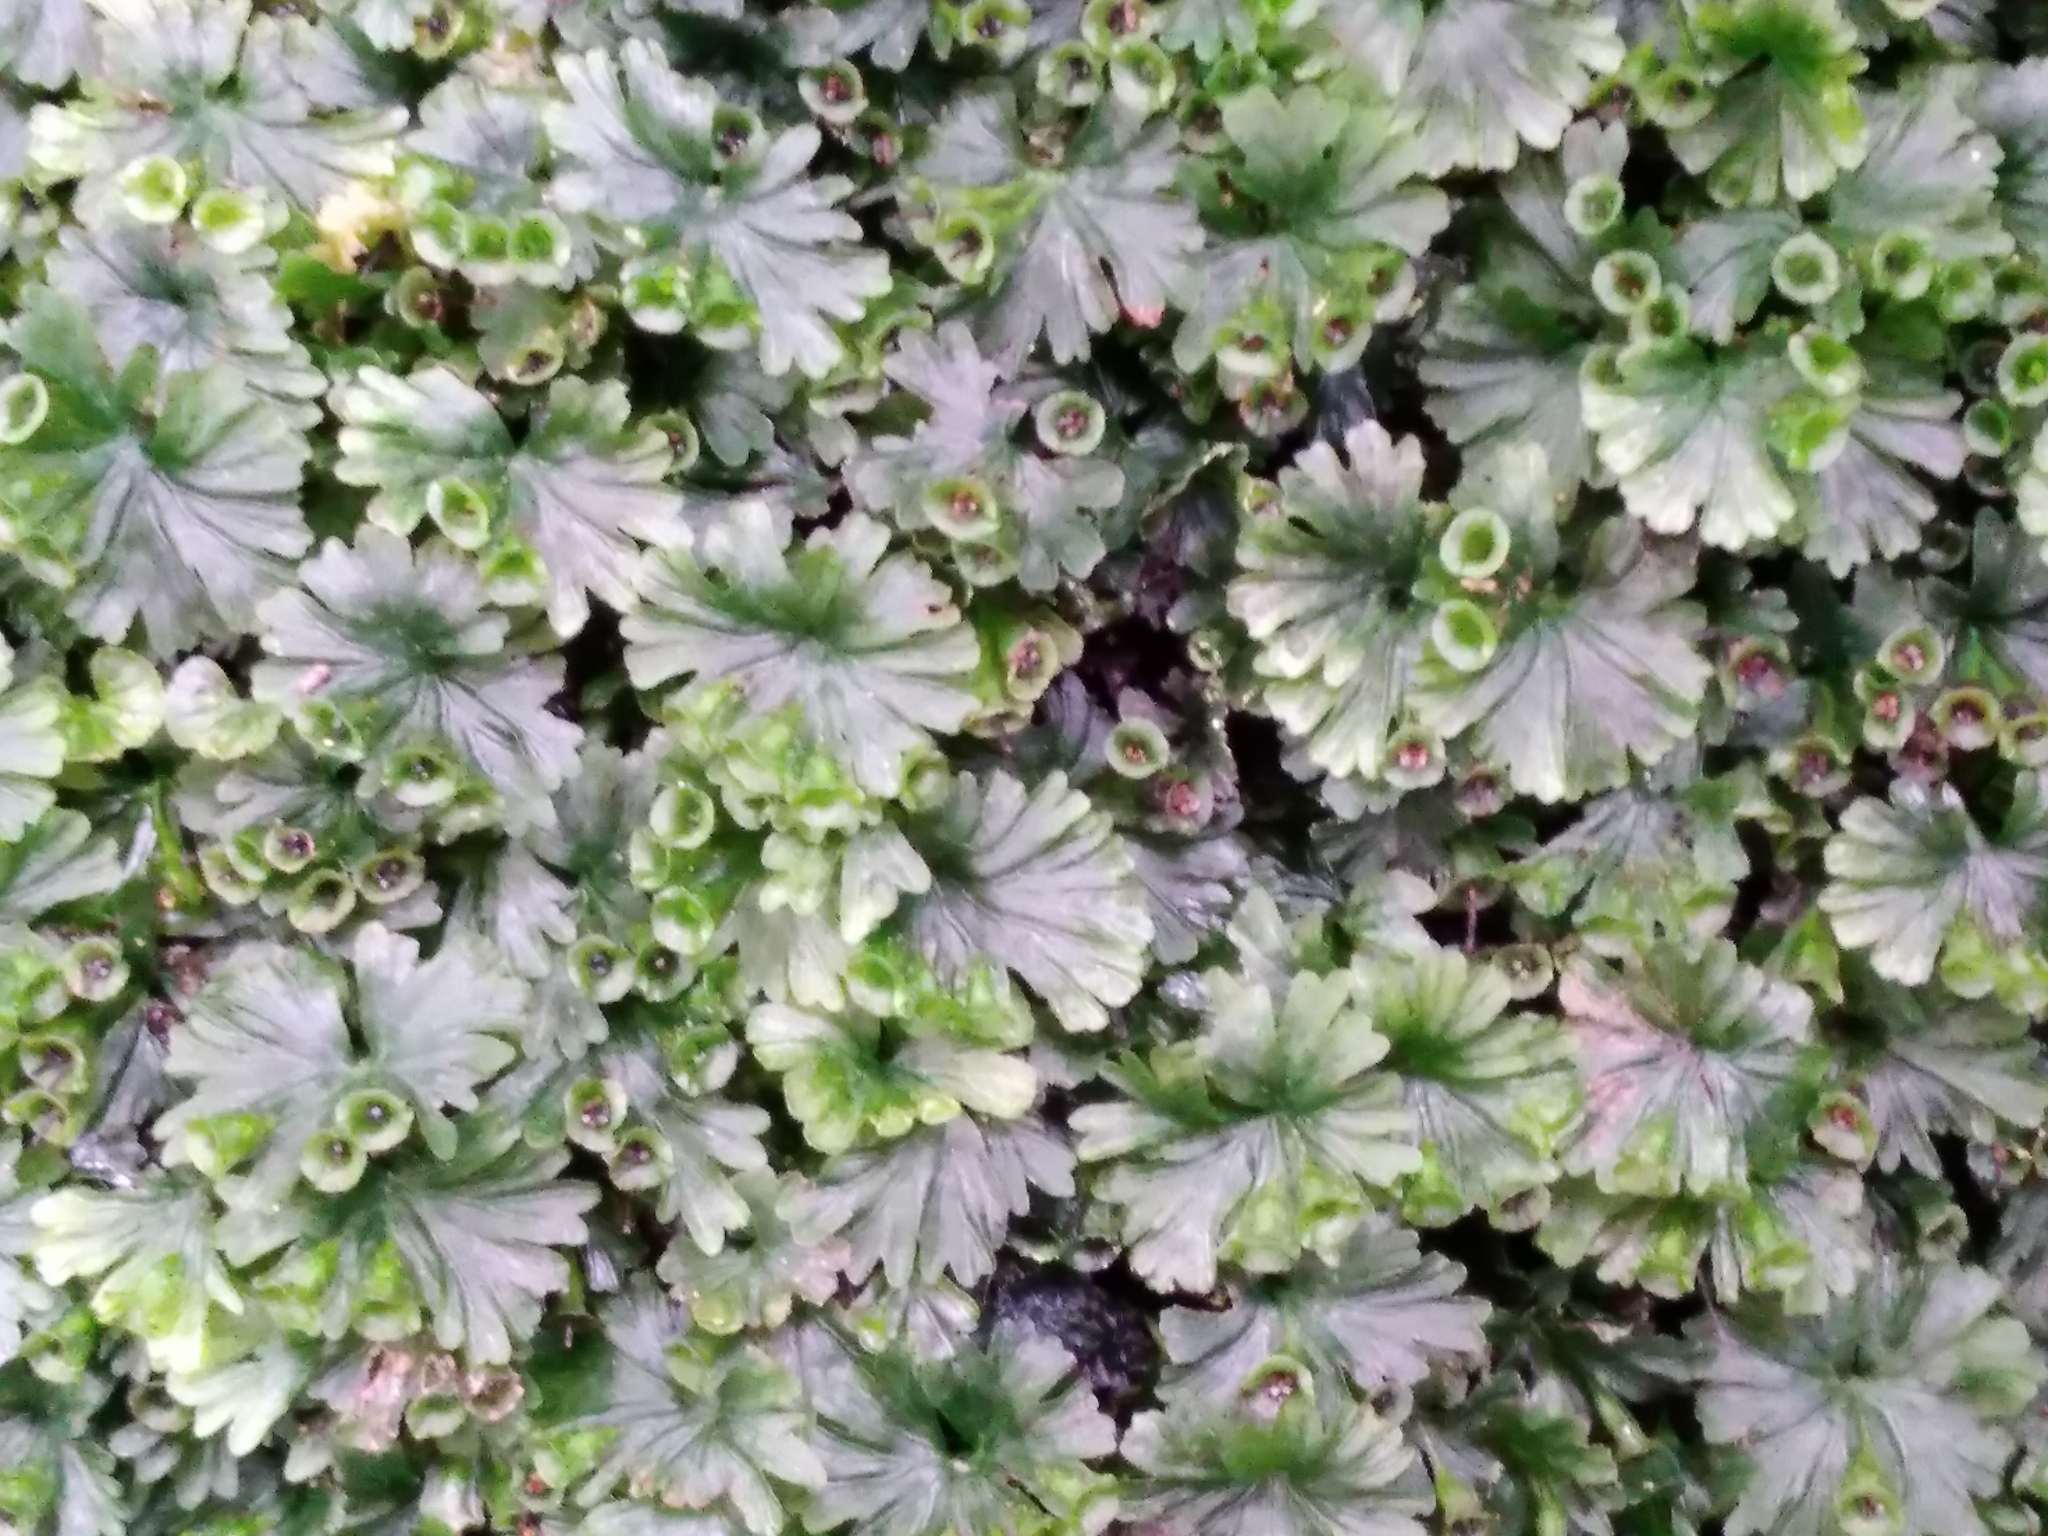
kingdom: Plantae
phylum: Tracheophyta
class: Polypodiopsida
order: Hymenophyllales
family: Hymenophyllaceae
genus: Crepidomanes
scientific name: Crepidomanes saxifragoides
